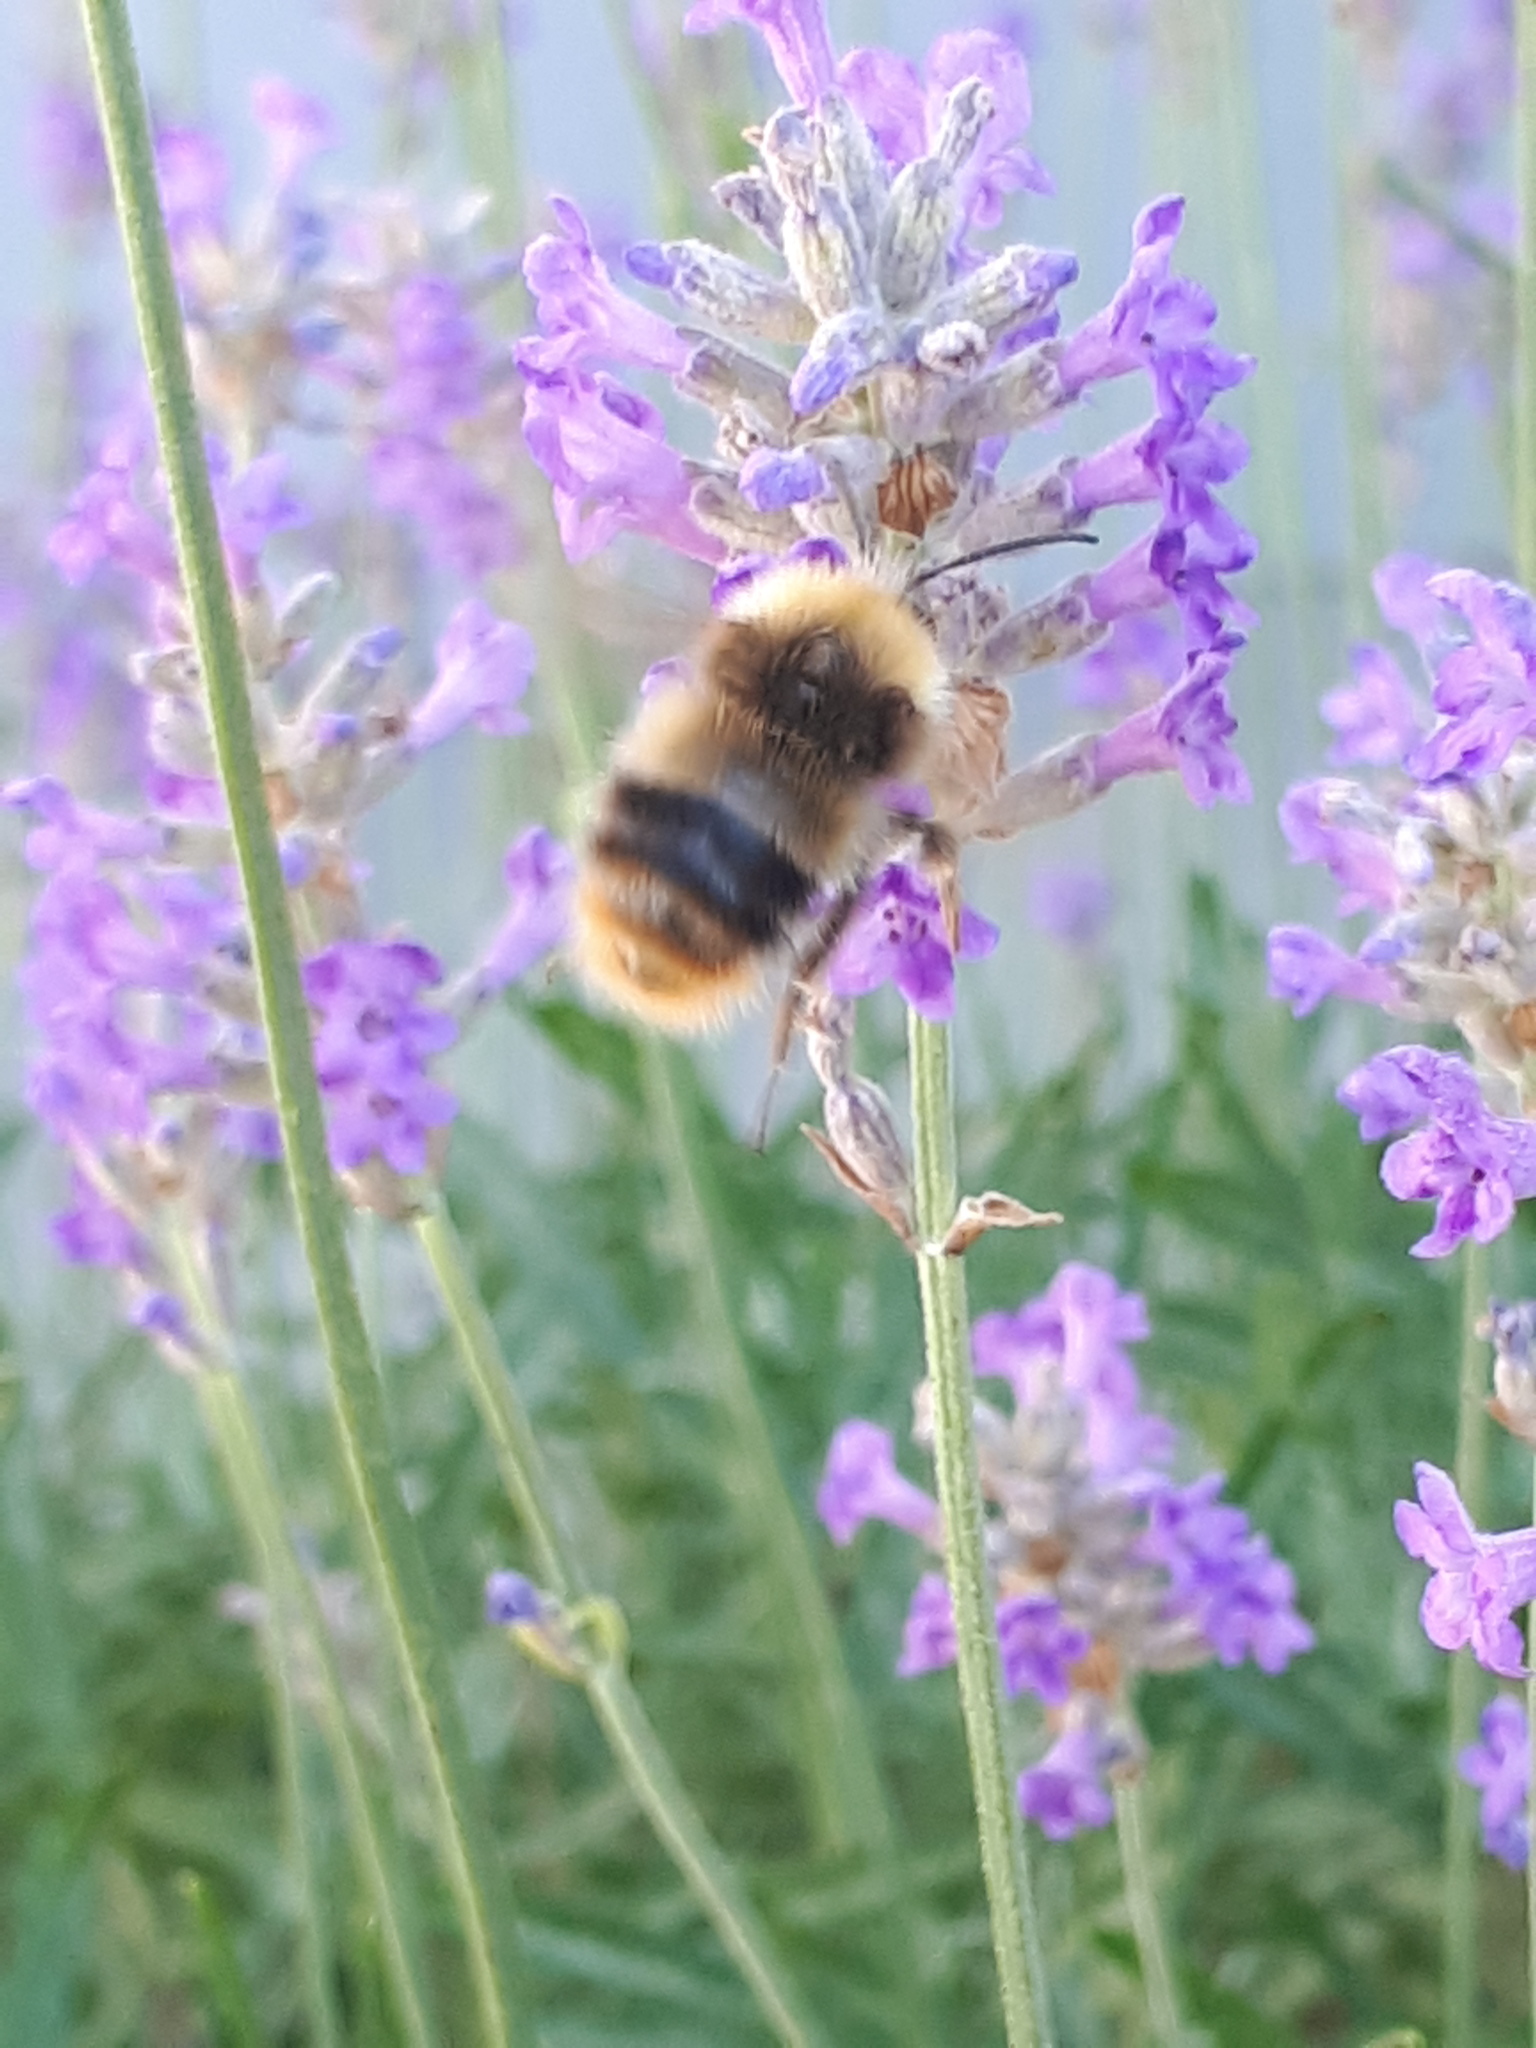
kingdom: Animalia
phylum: Arthropoda
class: Insecta
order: Hymenoptera
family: Apidae
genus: Bombus
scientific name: Bombus pratorum
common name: Early humble-bee
